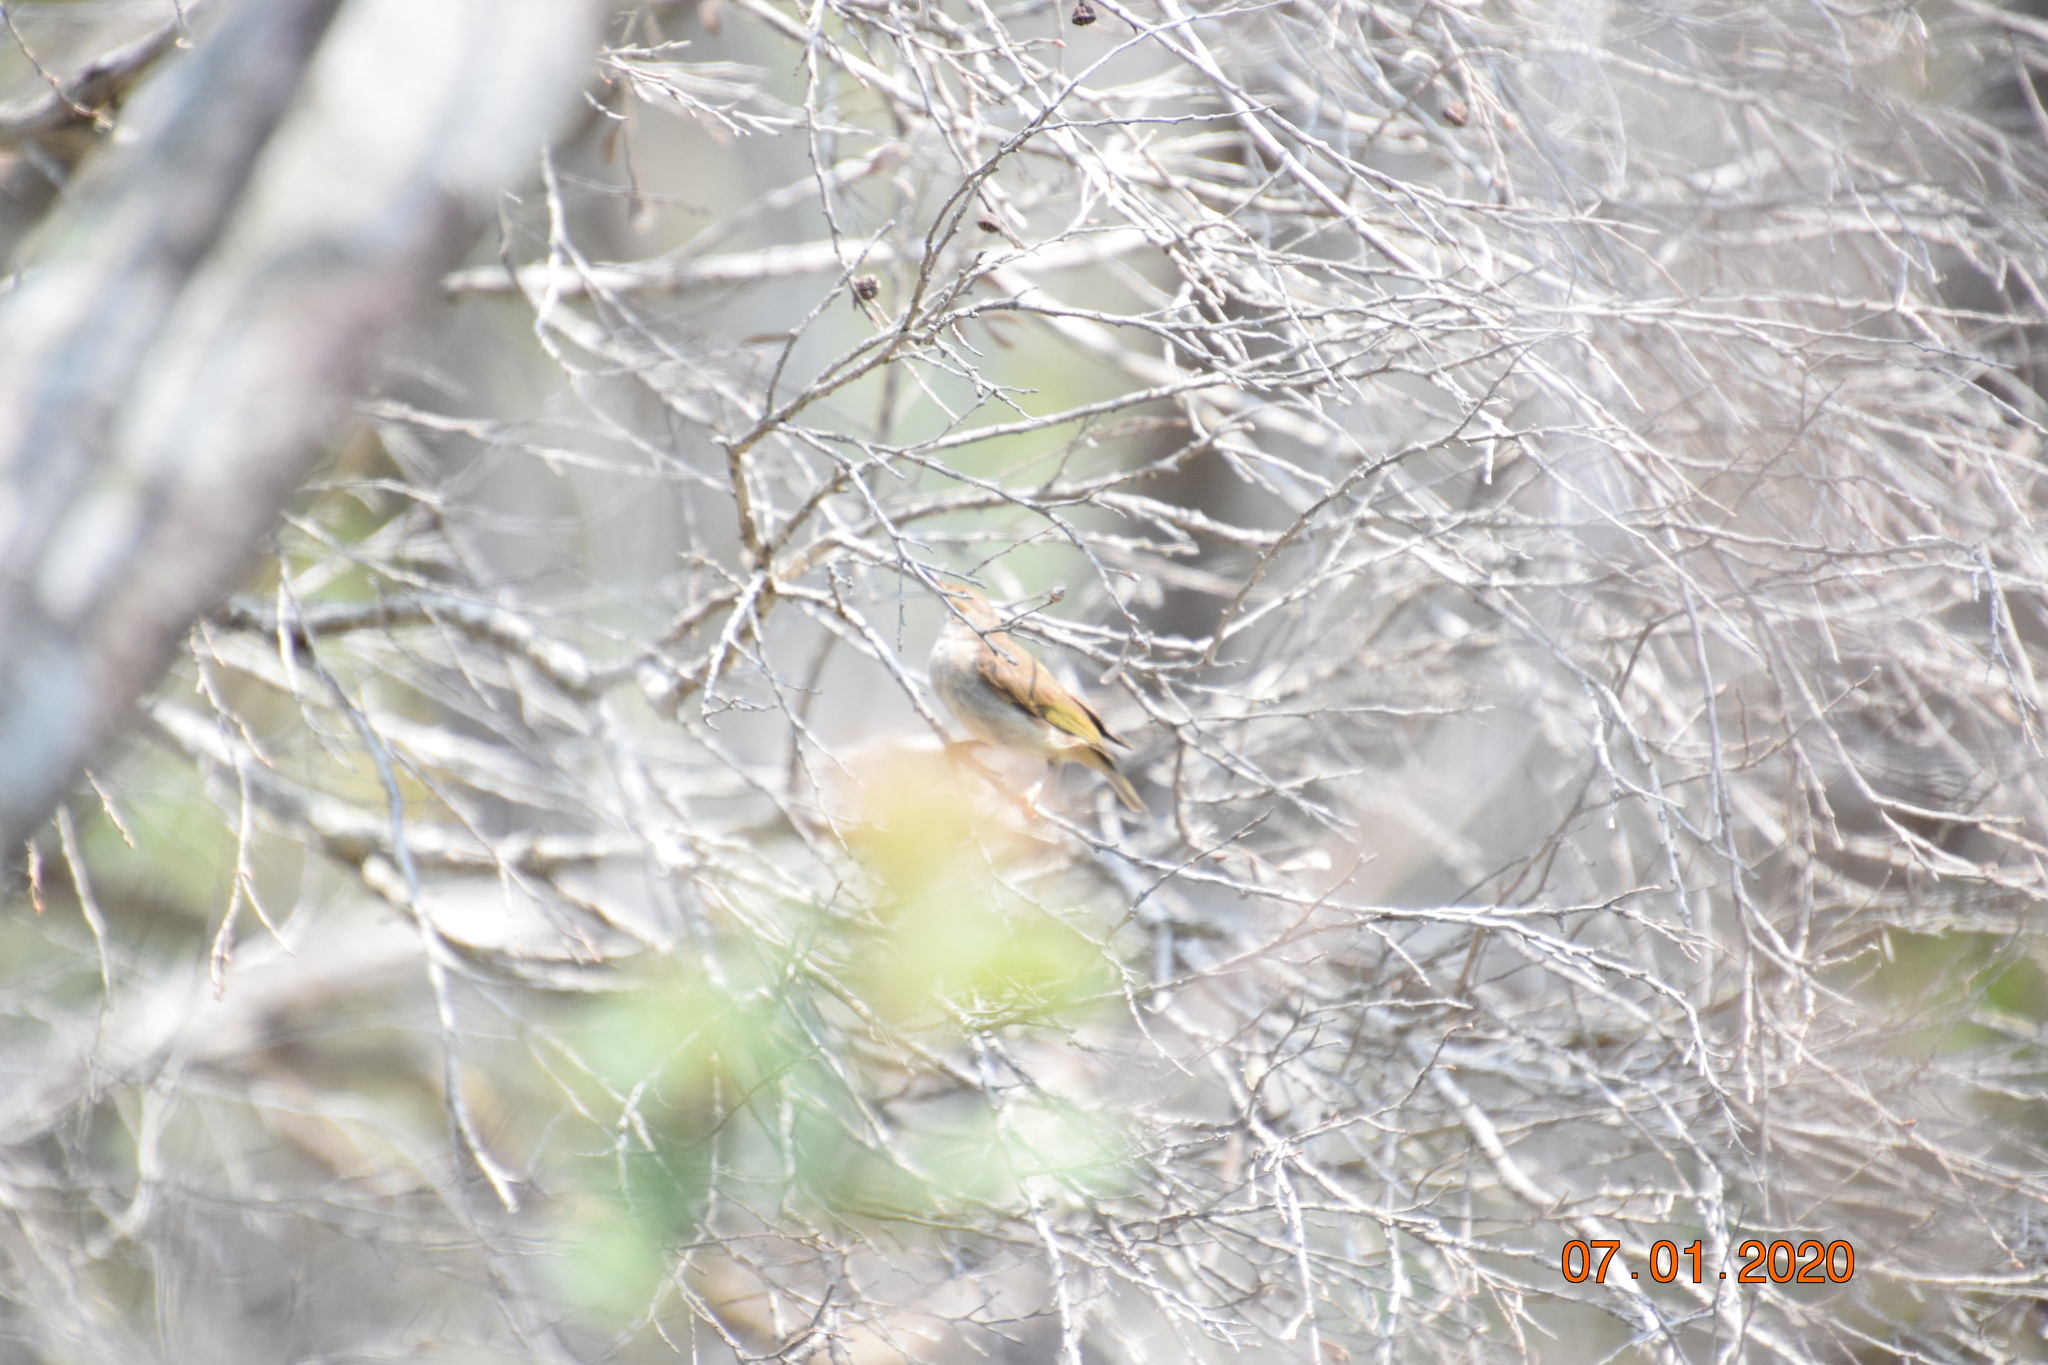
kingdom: Animalia
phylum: Chordata
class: Aves
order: Passeriformes
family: Meliphagidae
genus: Lichmera
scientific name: Lichmera indistincta
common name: Brown honeyeater
